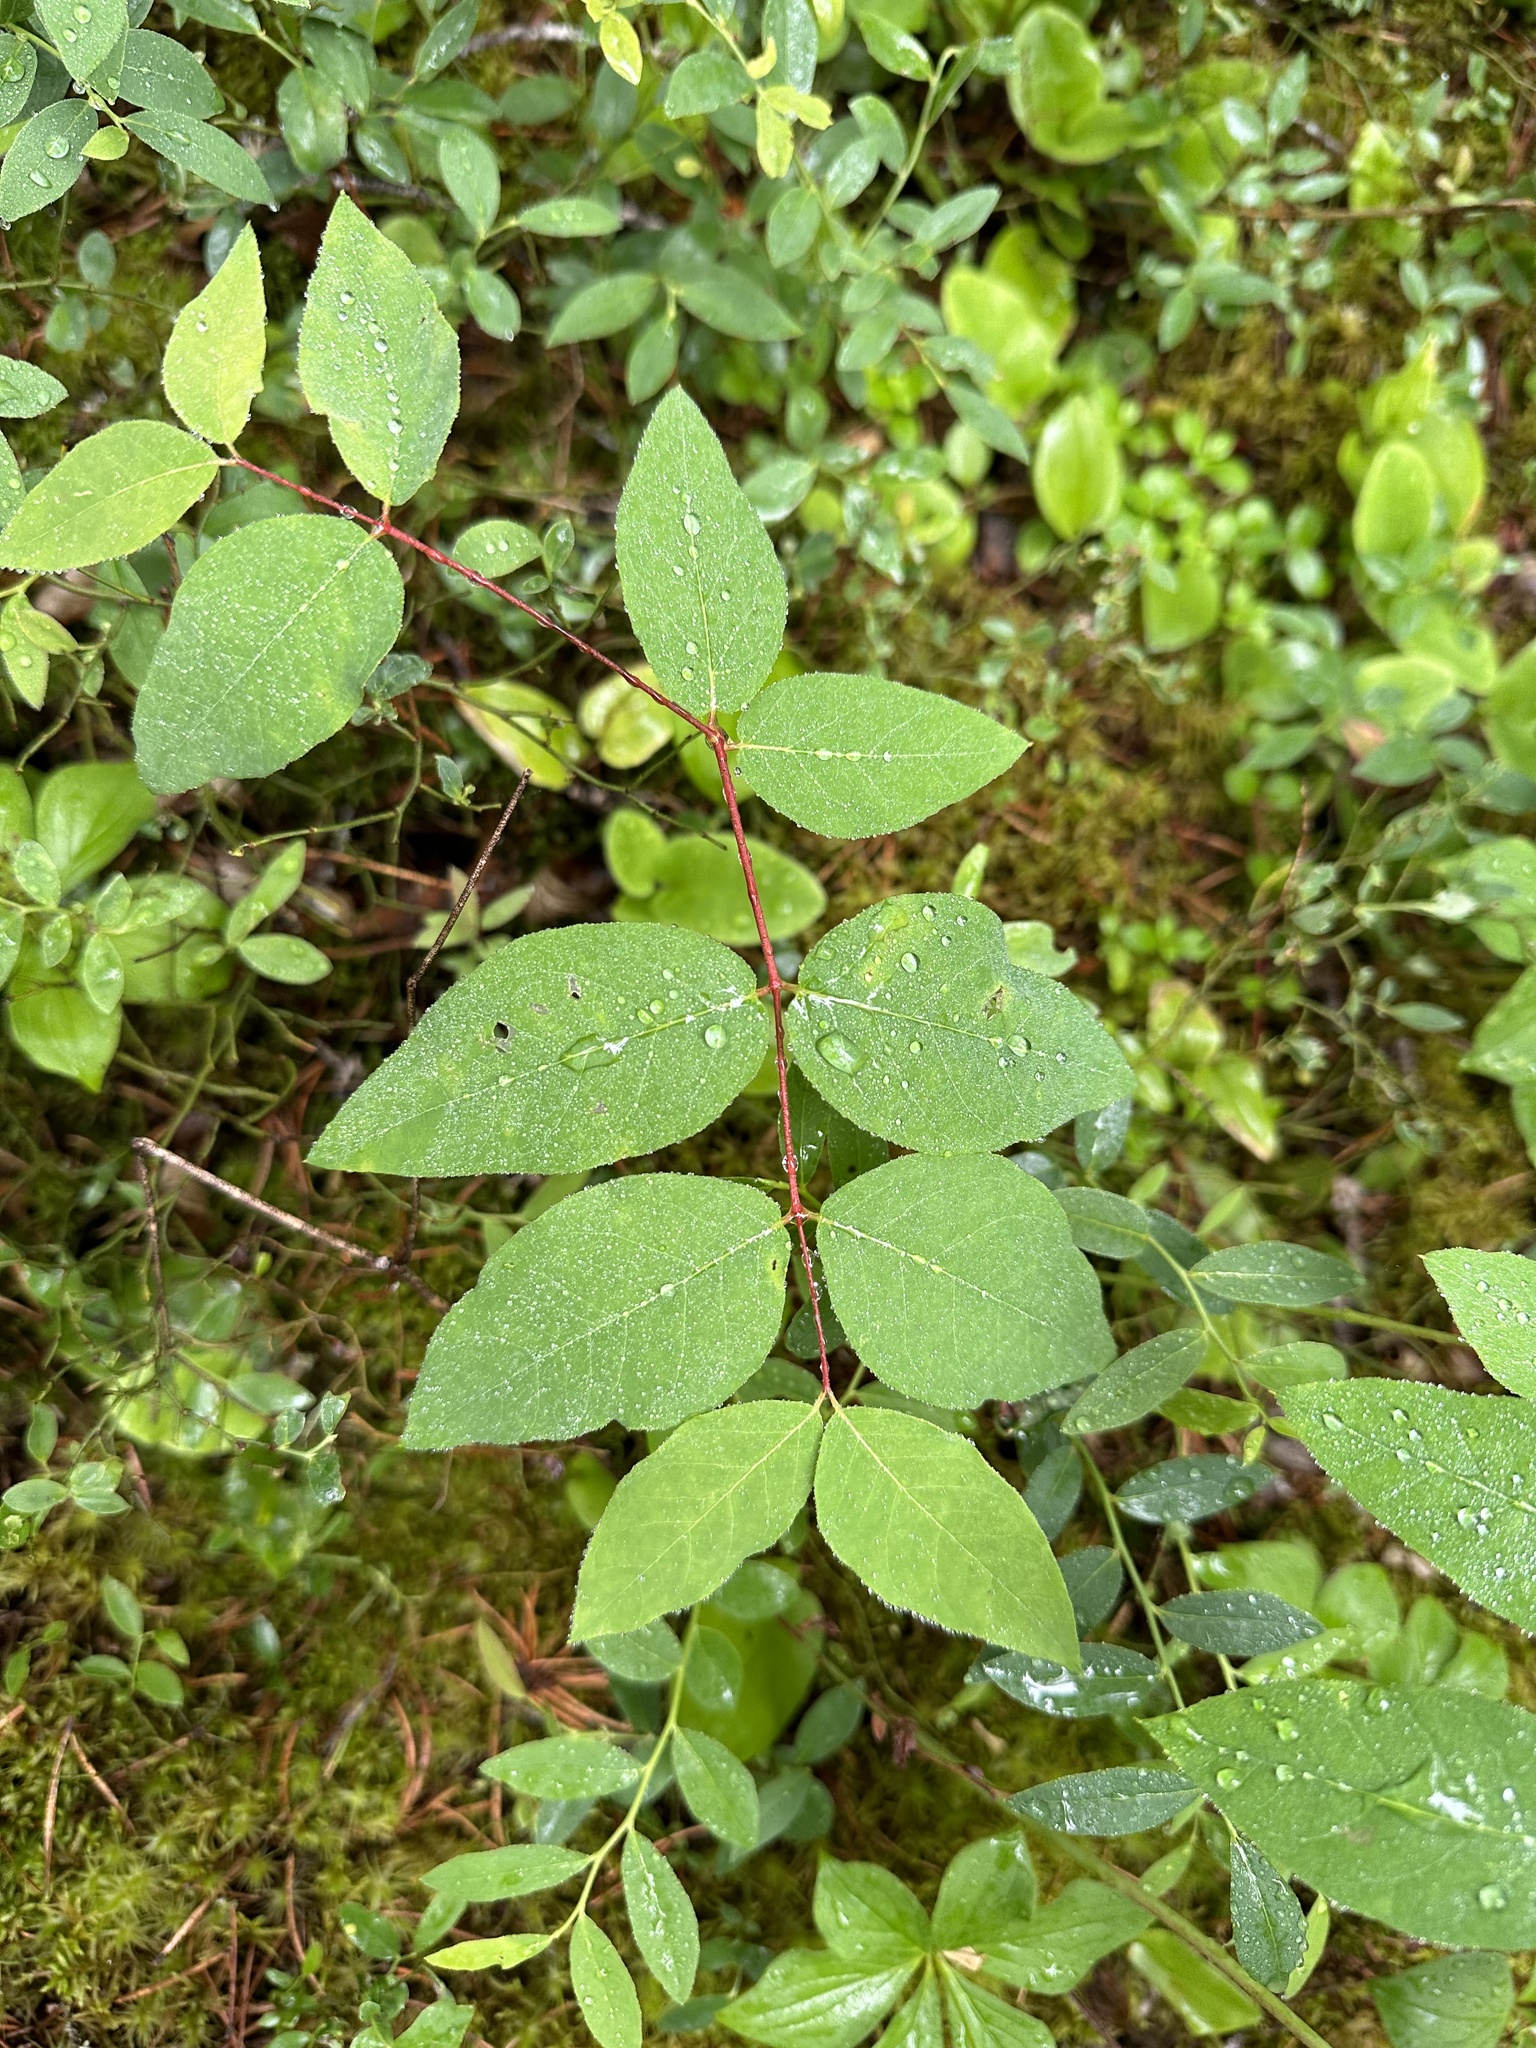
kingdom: Plantae
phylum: Tracheophyta
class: Magnoliopsida
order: Gentianales
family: Apocynaceae
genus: Apocynum
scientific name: Apocynum androsaemifolium
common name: Spreading dogbane
